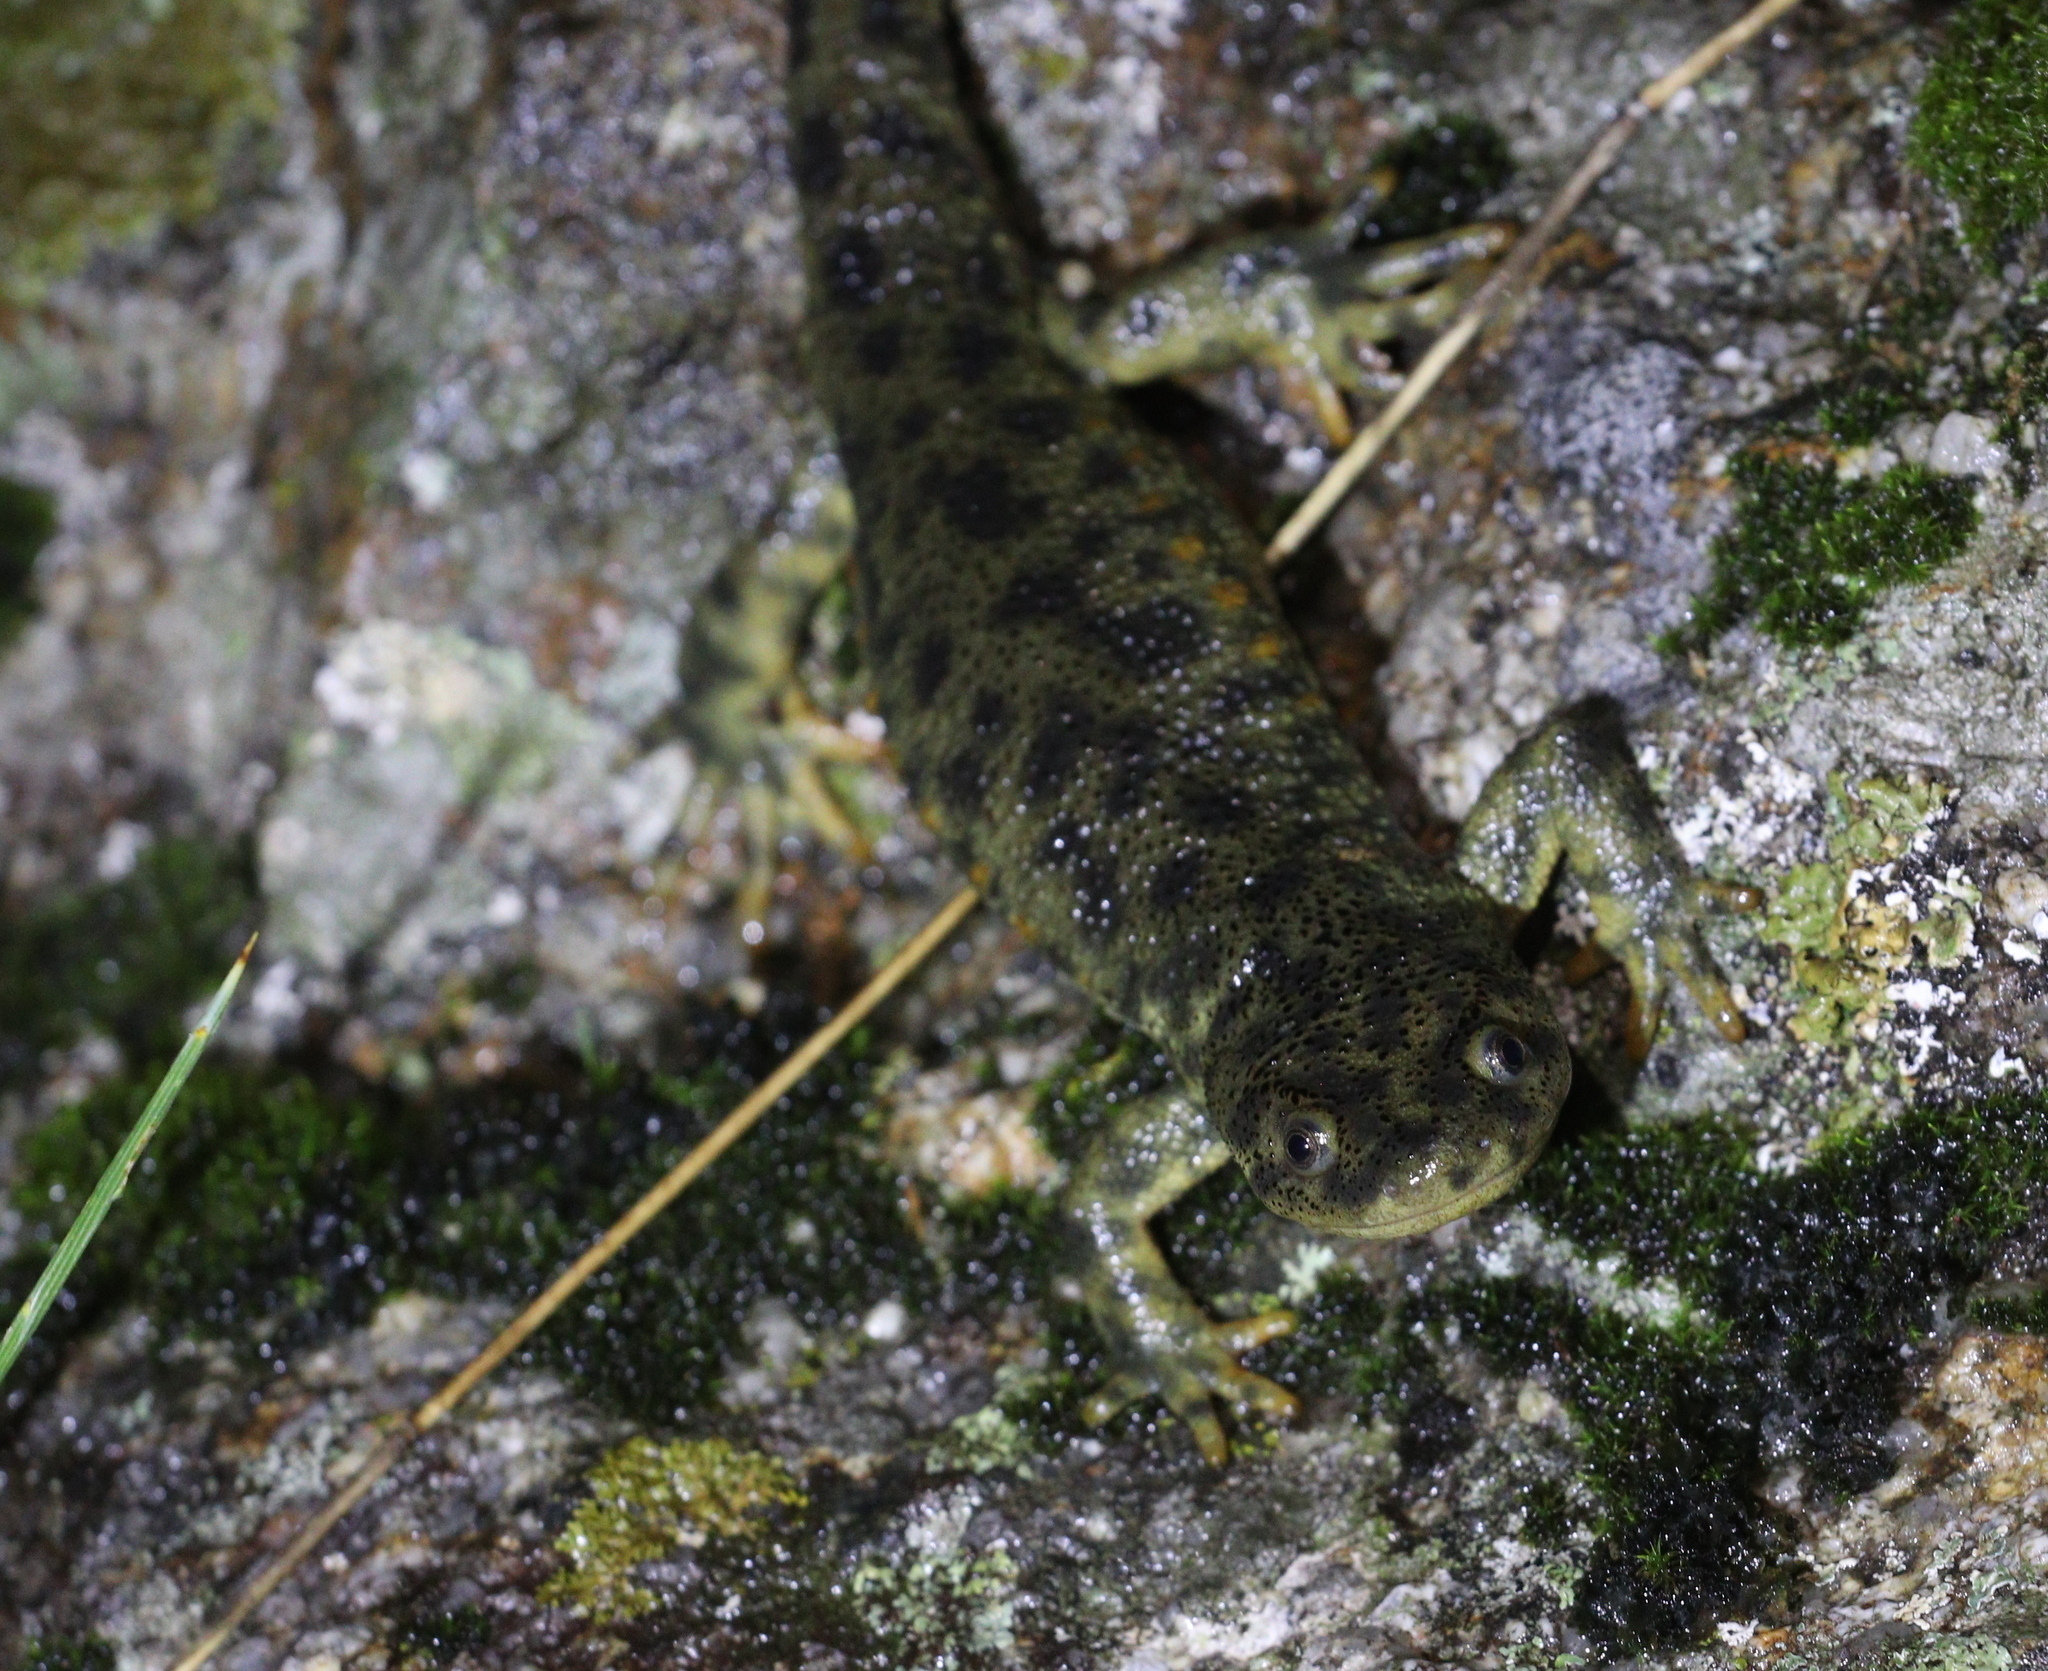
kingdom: Animalia
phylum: Chordata
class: Amphibia
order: Caudata
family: Salamandridae
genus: Pleurodeles
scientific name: Pleurodeles waltl
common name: Iberian ribbed newt
